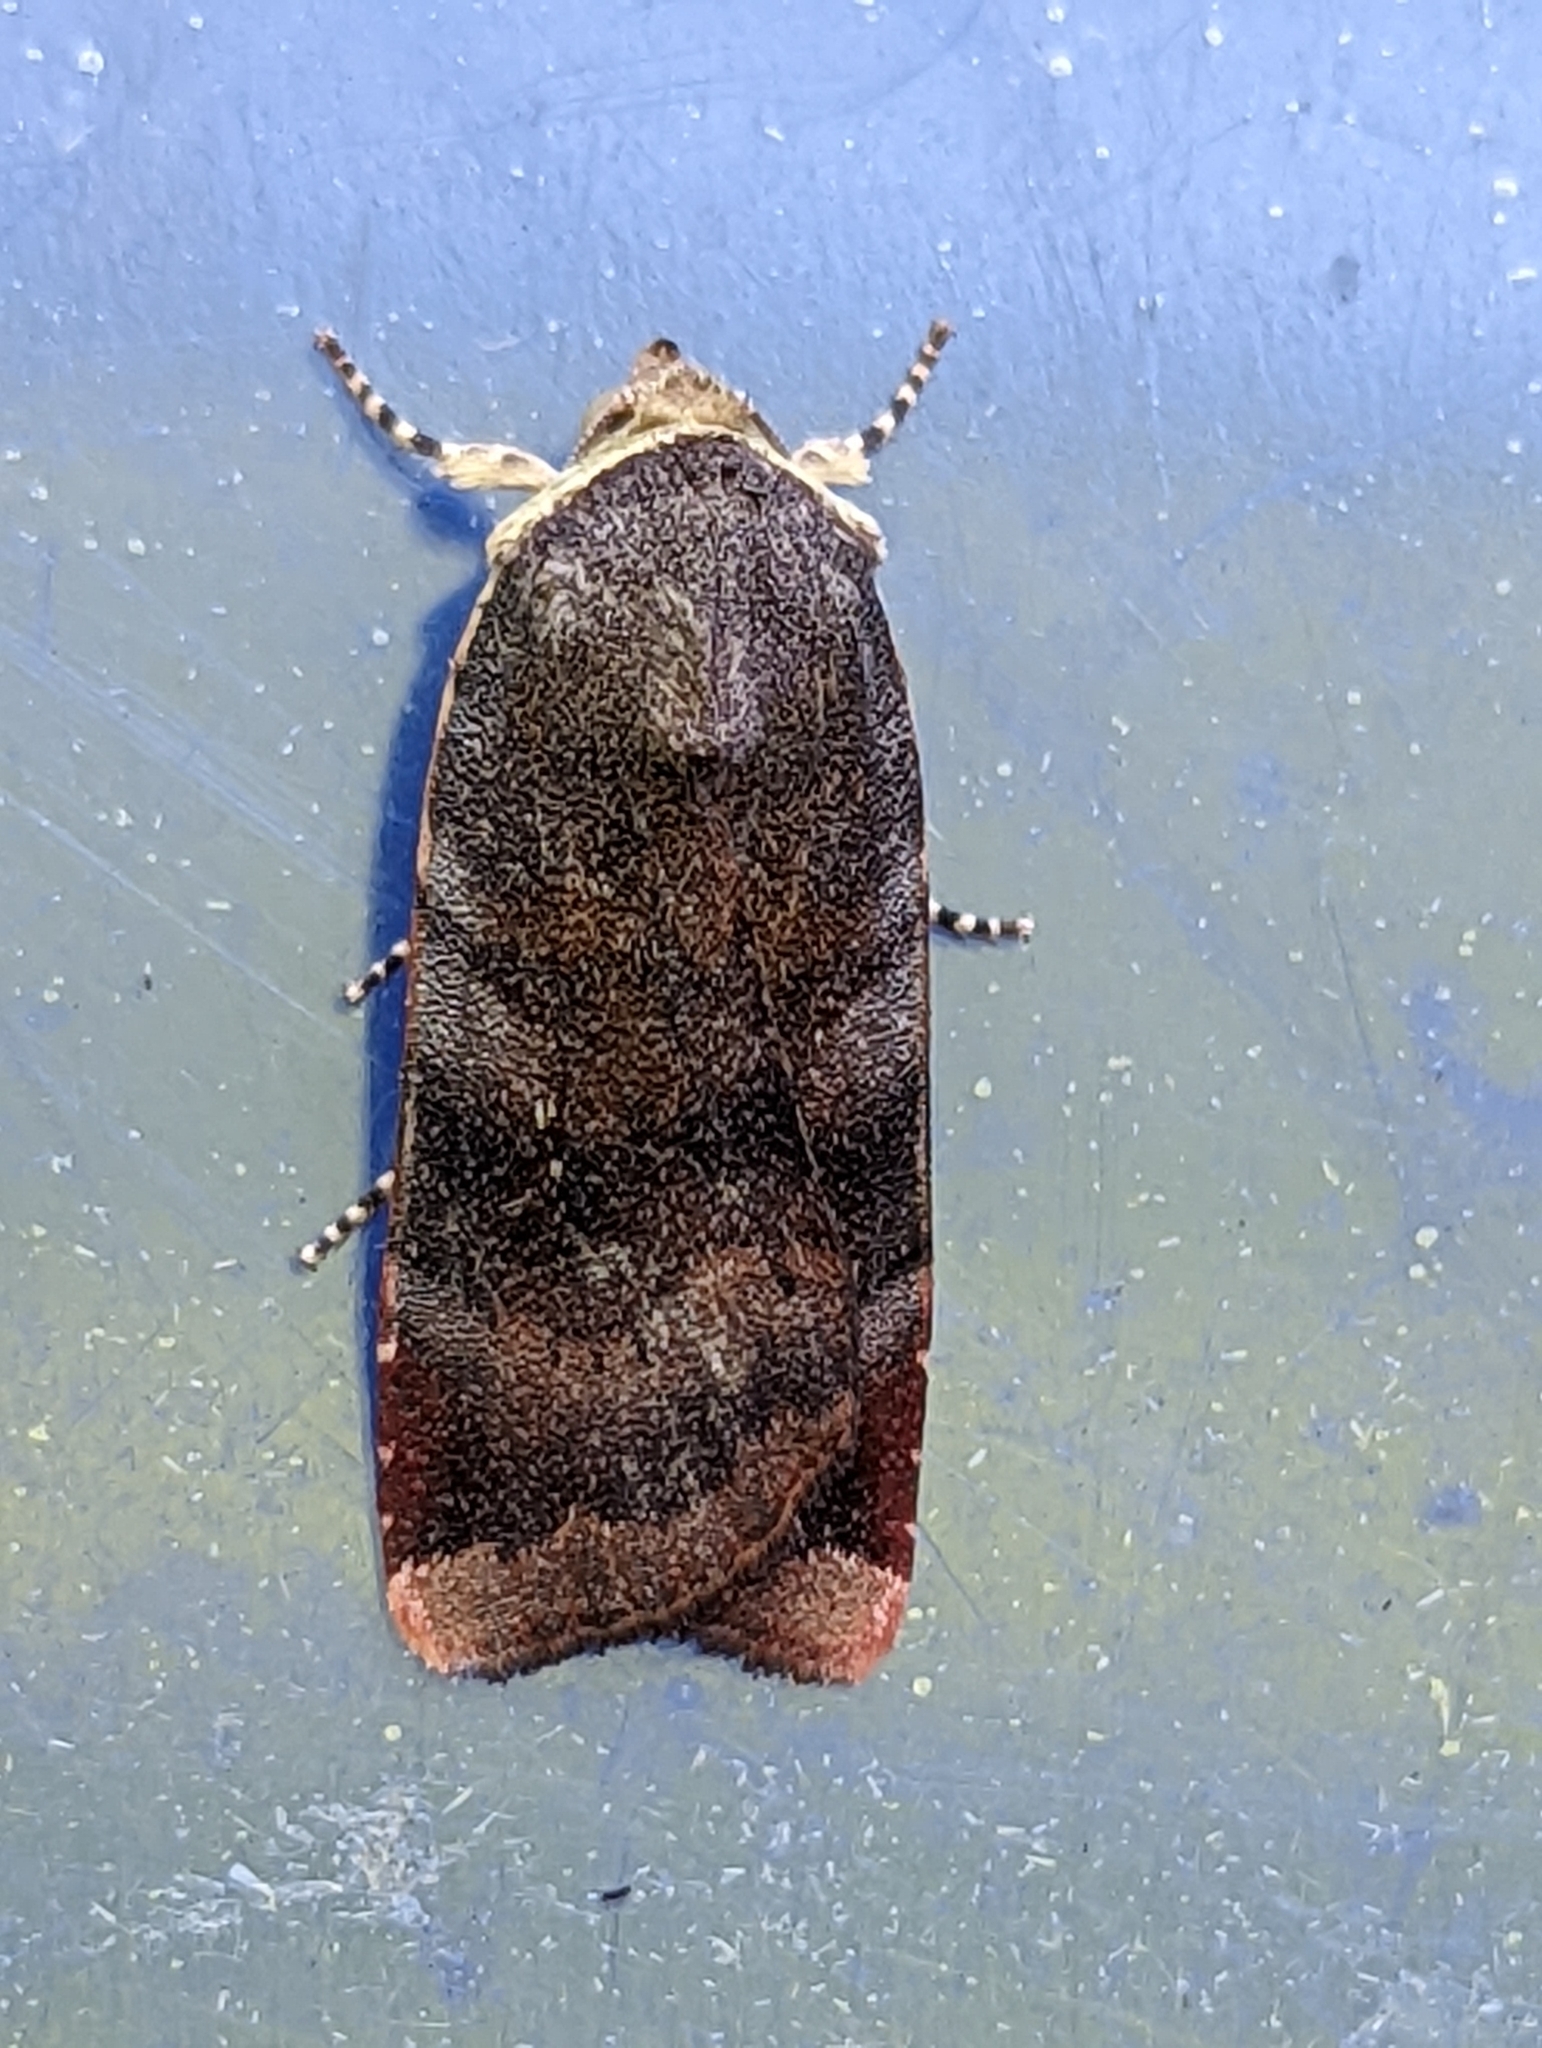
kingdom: Animalia
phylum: Arthropoda
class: Insecta
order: Lepidoptera
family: Noctuidae
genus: Noctua
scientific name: Noctua janthe
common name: Lesser broad-bordered yellow underwing
